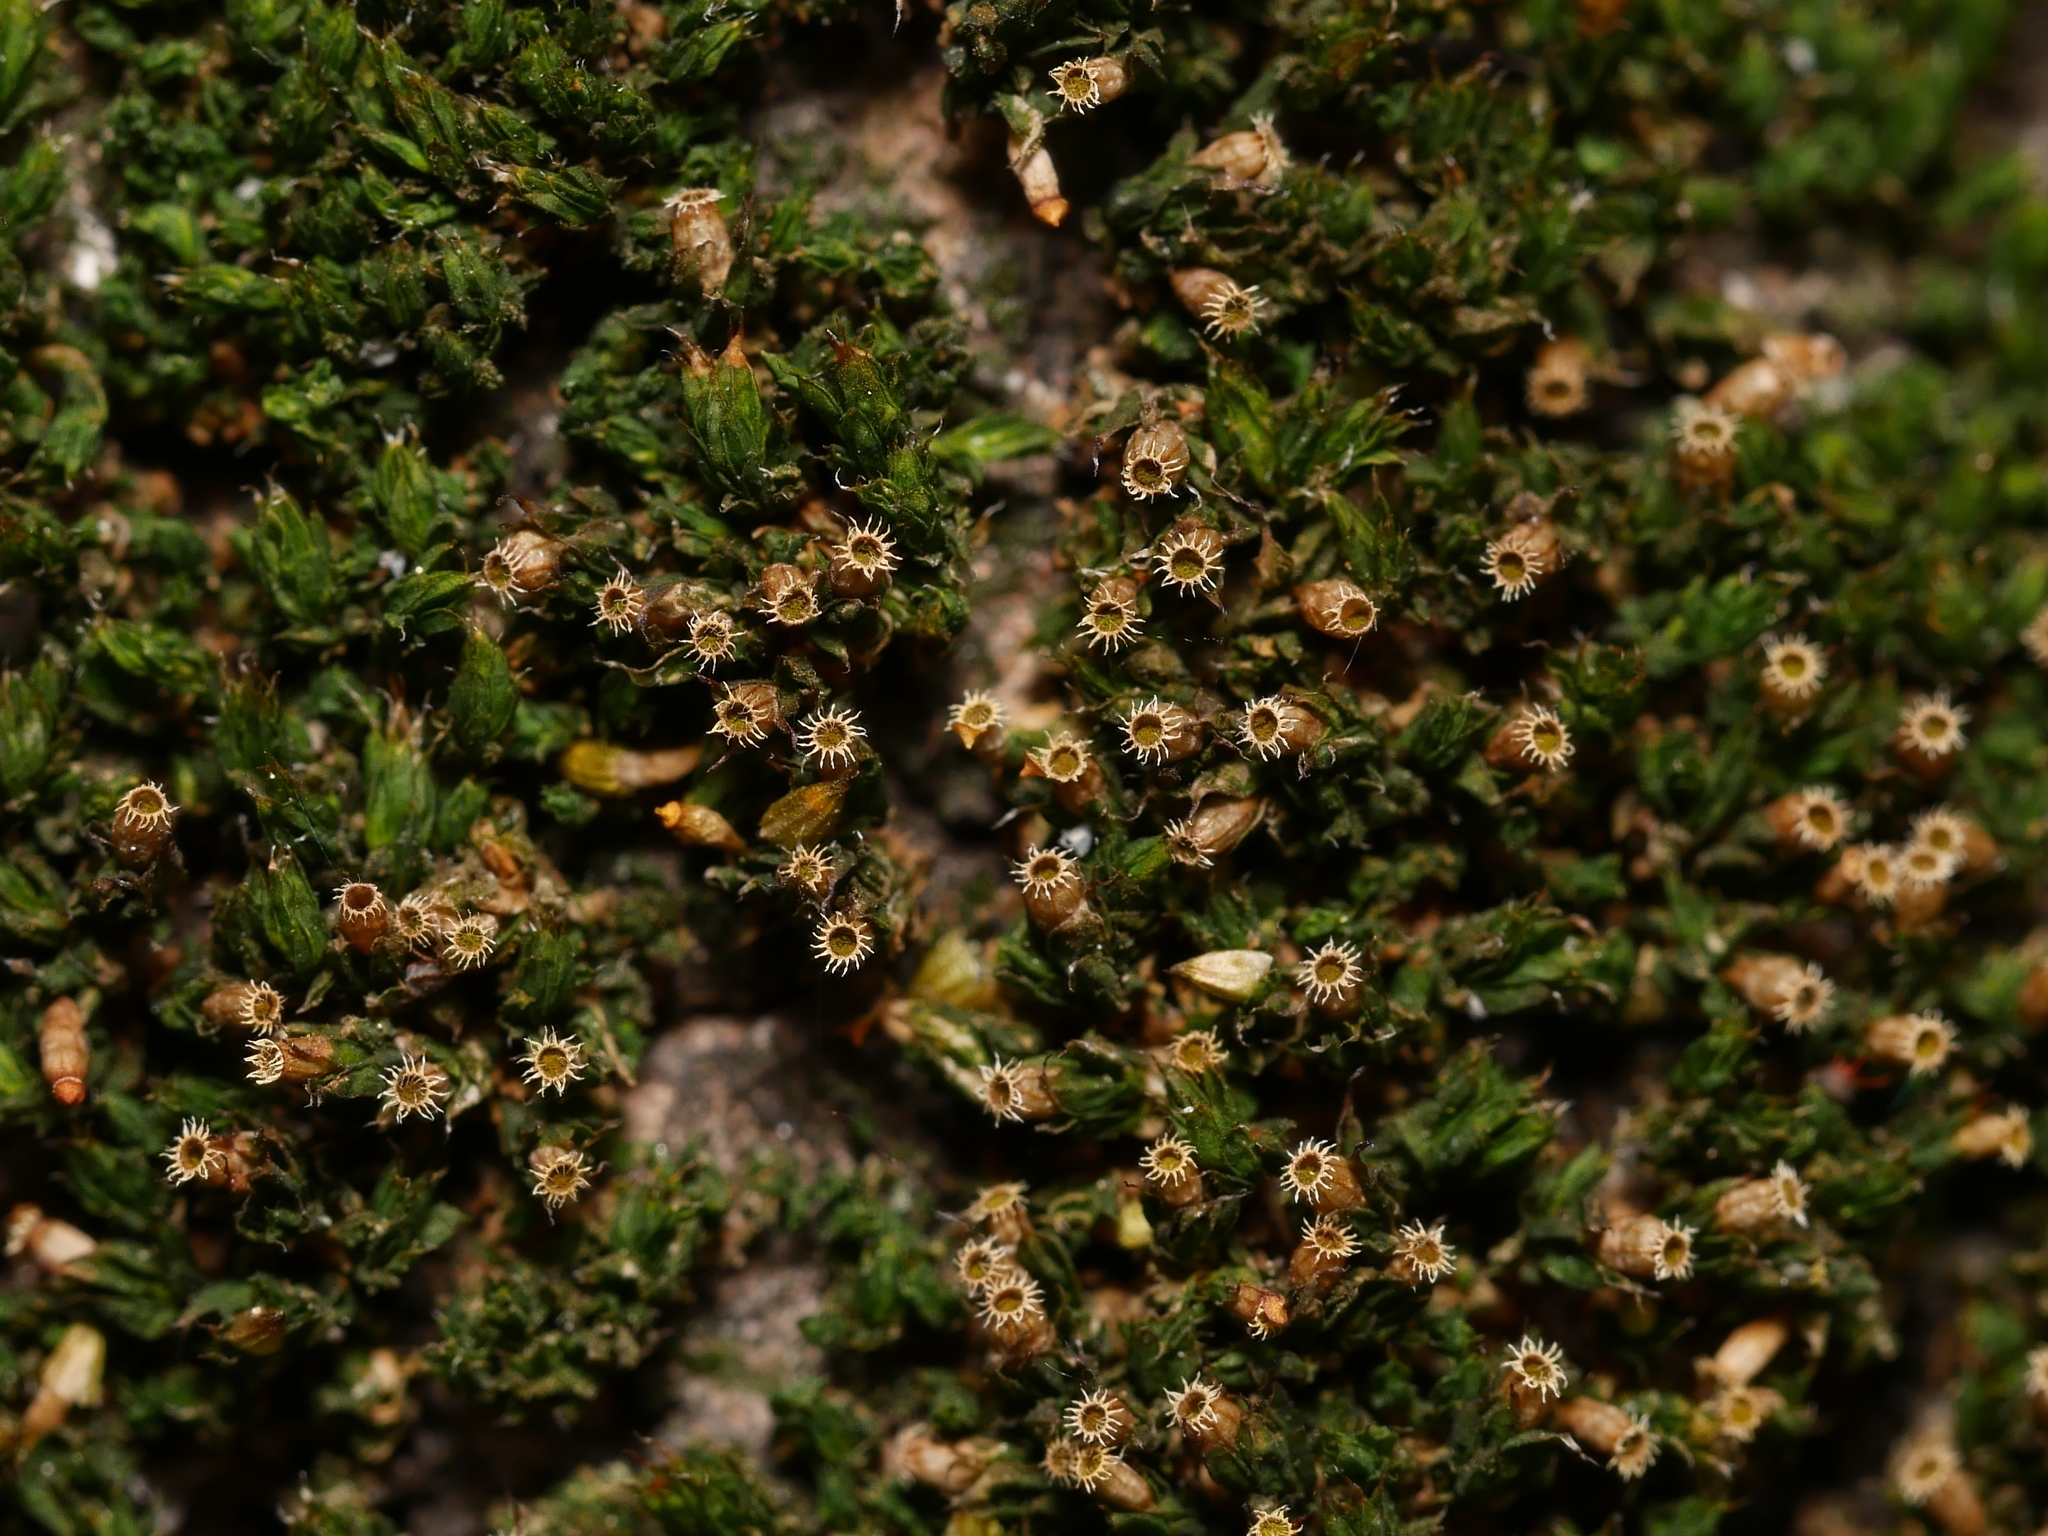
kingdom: Plantae
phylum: Bryophyta
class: Bryopsida
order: Orthotrichales
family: Orthotrichaceae
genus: Orthotrichum
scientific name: Orthotrichum diaphanum
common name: White-tipped bristle-moss
